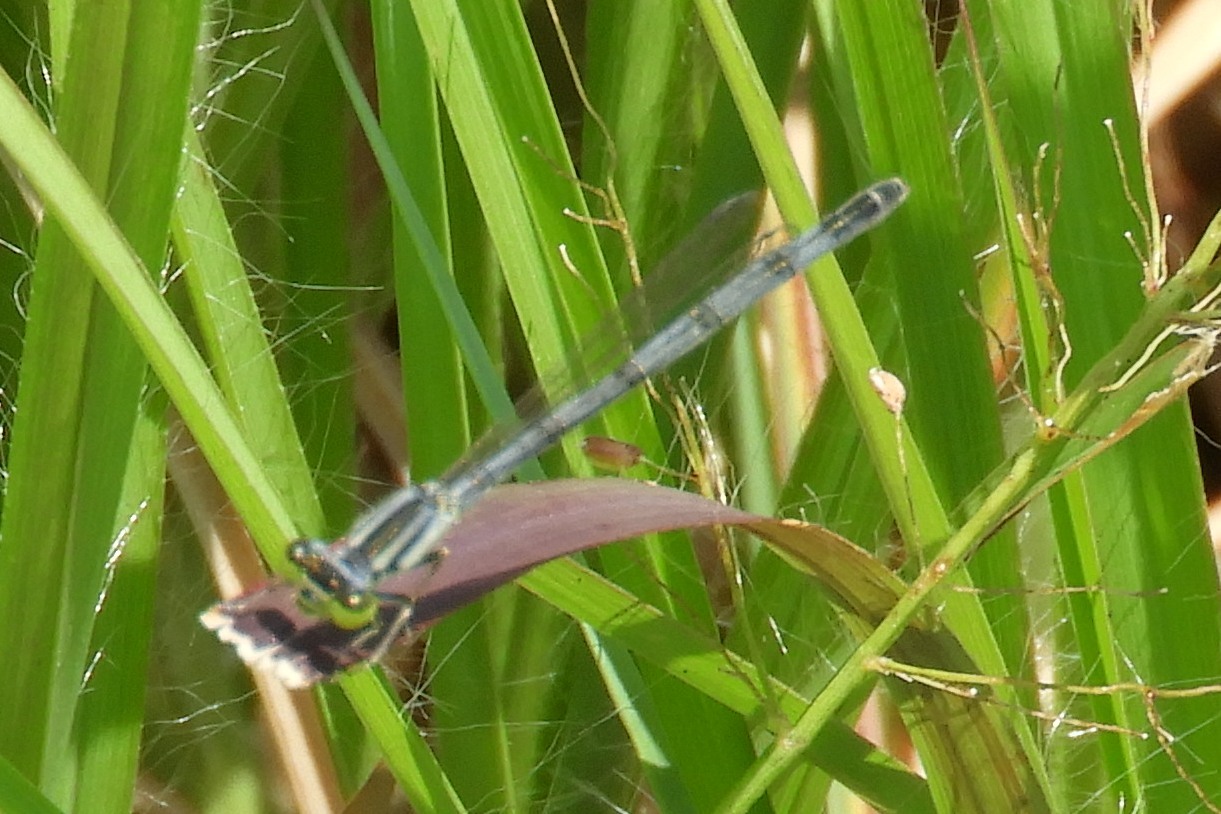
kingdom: Animalia
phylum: Arthropoda
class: Insecta
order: Odonata
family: Coenagrionidae
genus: Ischnura
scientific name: Ischnura verticalis
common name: Eastern forktail
